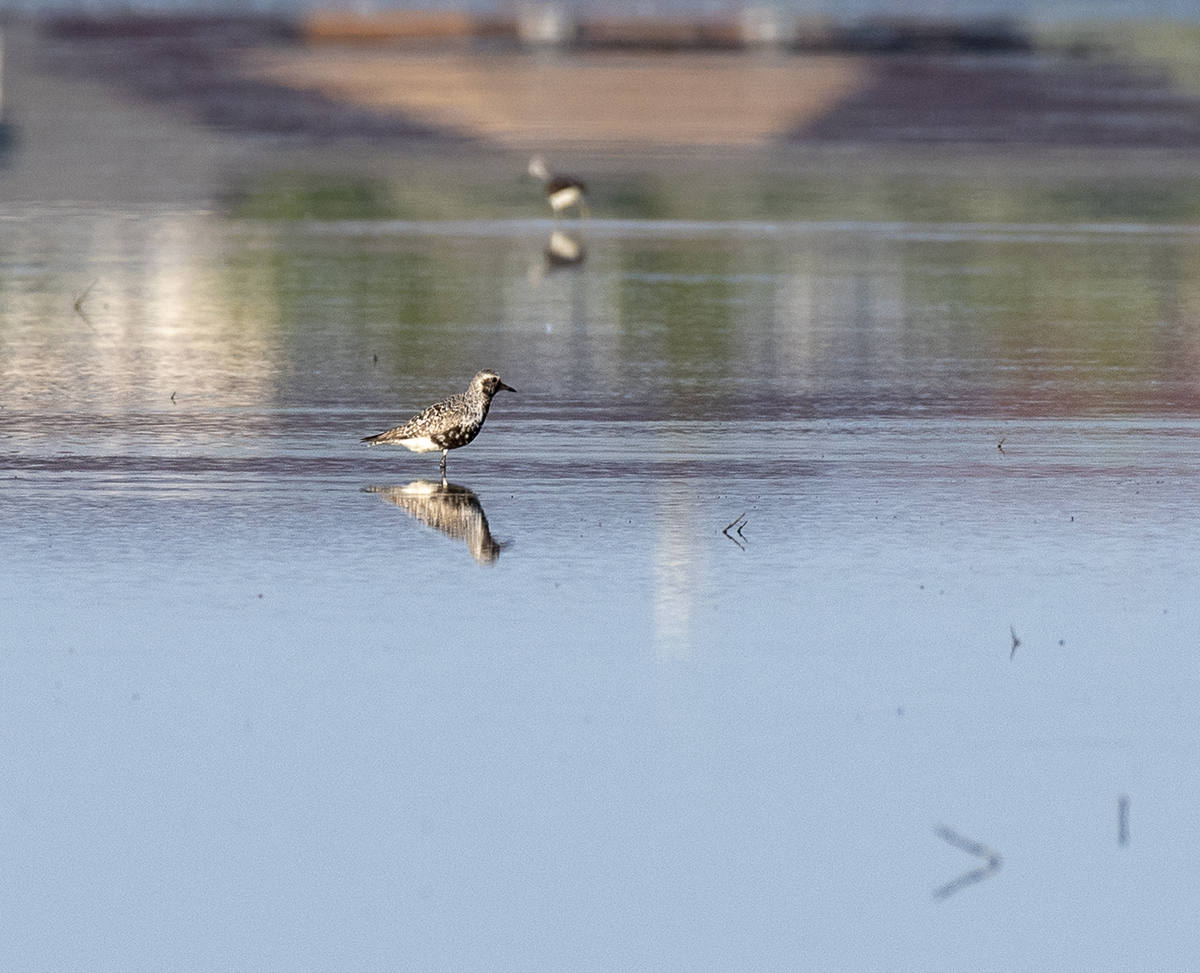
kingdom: Animalia
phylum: Chordata
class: Aves
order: Charadriiformes
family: Charadriidae
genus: Pluvialis
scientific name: Pluvialis squatarola
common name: Grey plover
